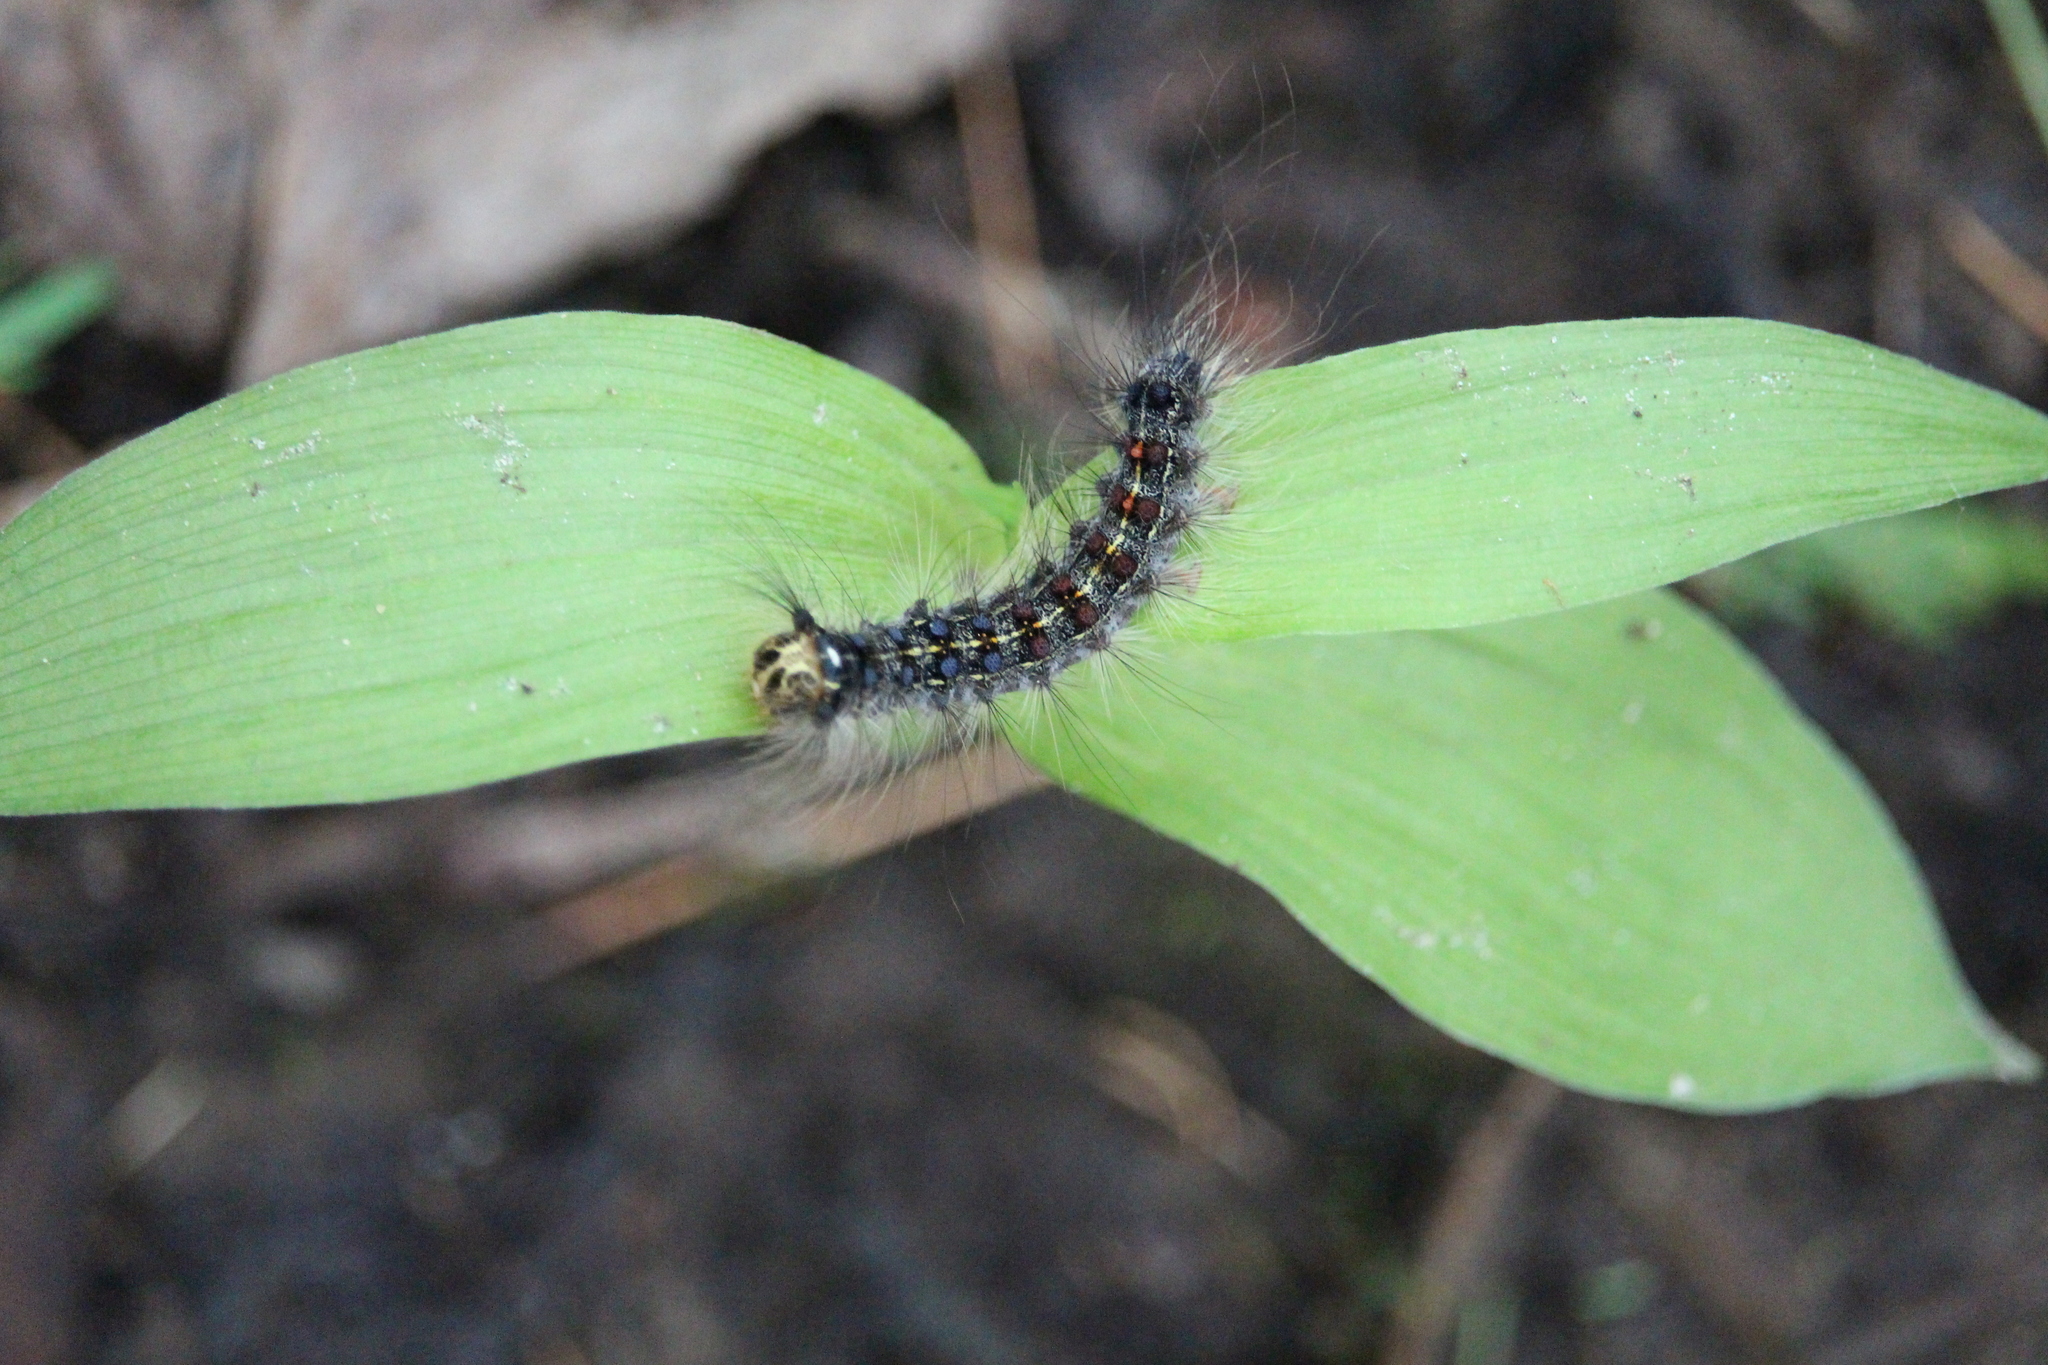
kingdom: Animalia
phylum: Arthropoda
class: Insecta
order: Lepidoptera
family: Erebidae
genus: Lymantria
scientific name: Lymantria dispar
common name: Gypsy moth
